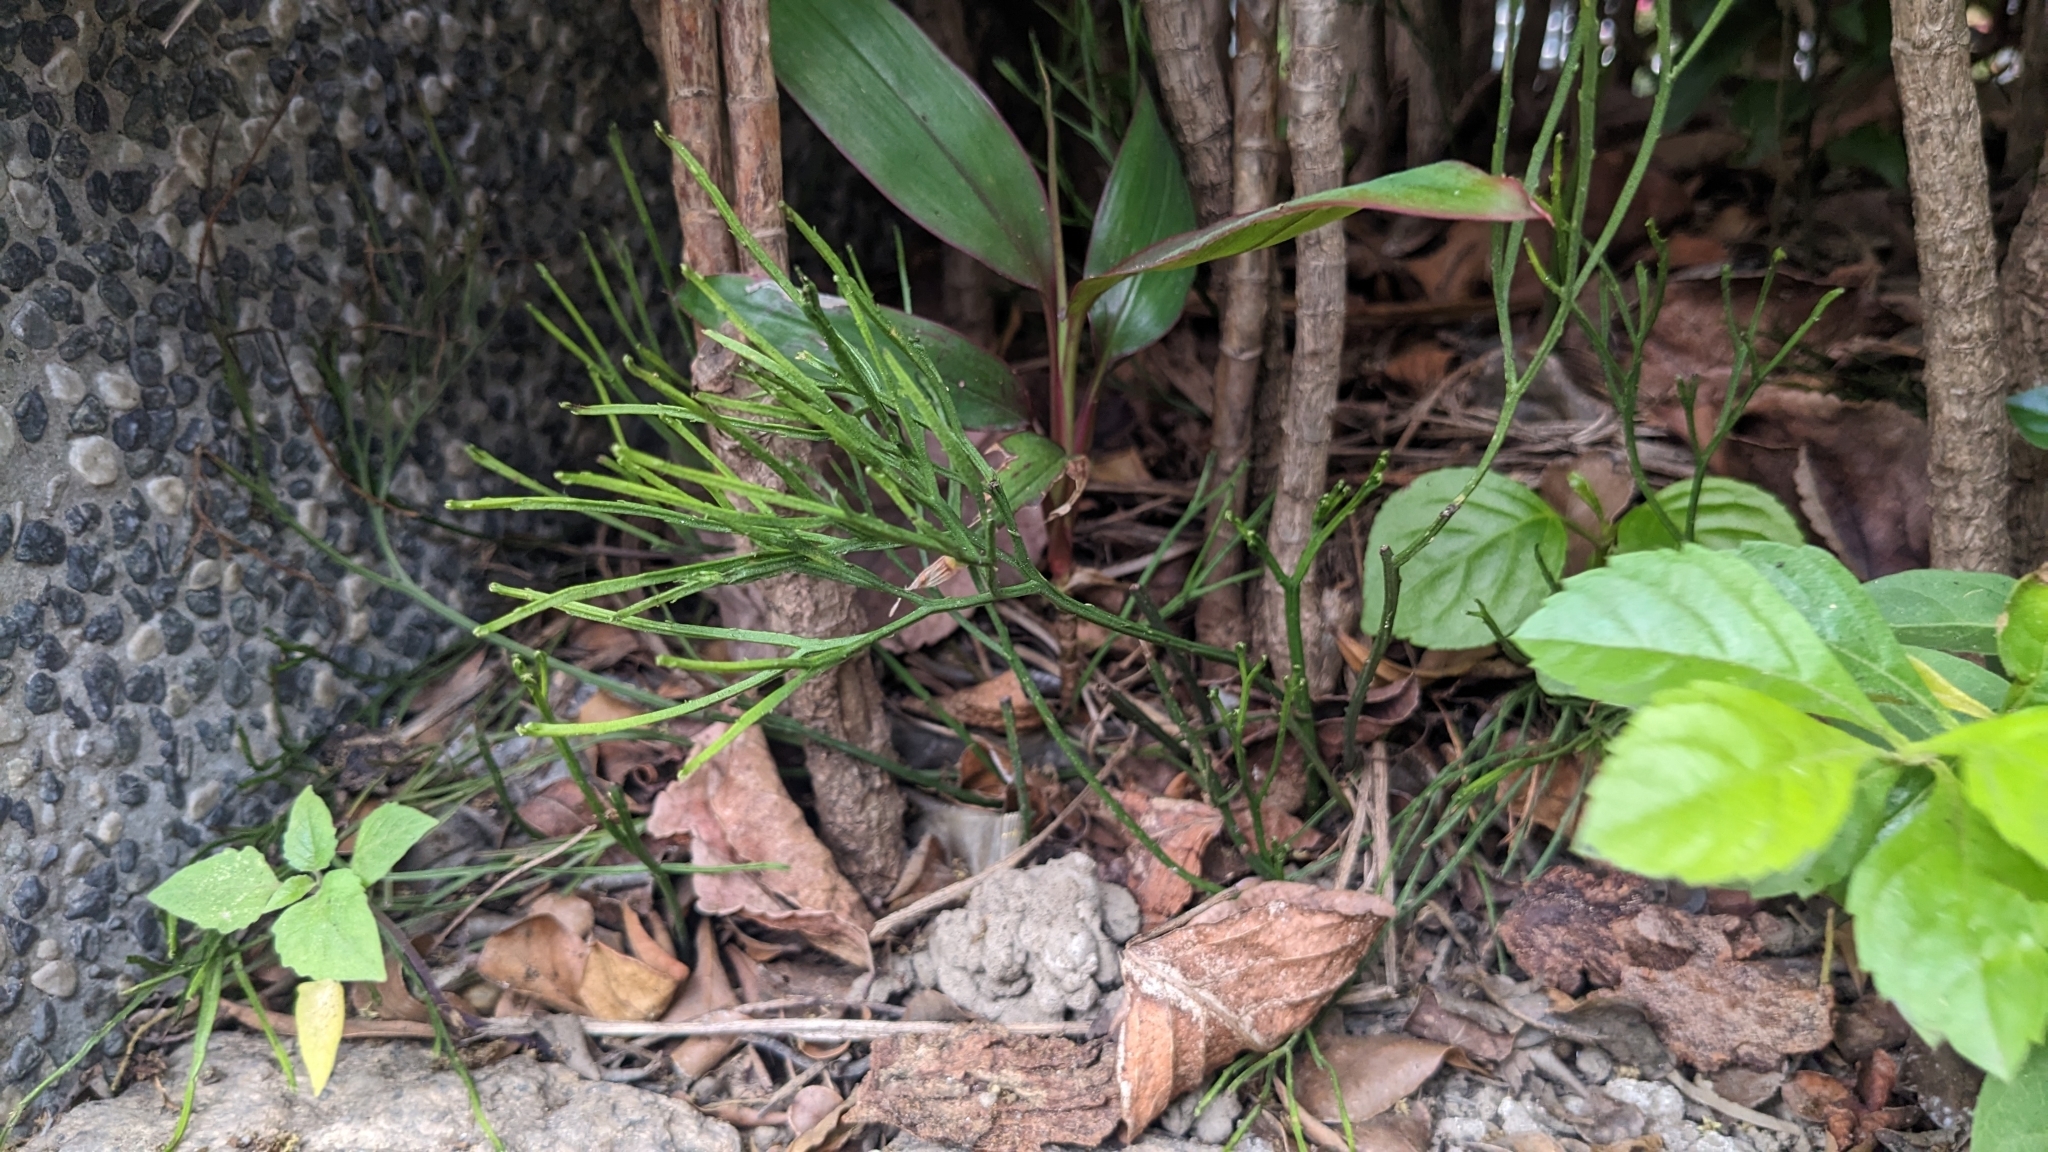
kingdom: Plantae
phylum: Tracheophyta
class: Polypodiopsida
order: Psilotales
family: Psilotaceae
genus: Psilotum
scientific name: Psilotum nudum
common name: Skeleton fork fern
